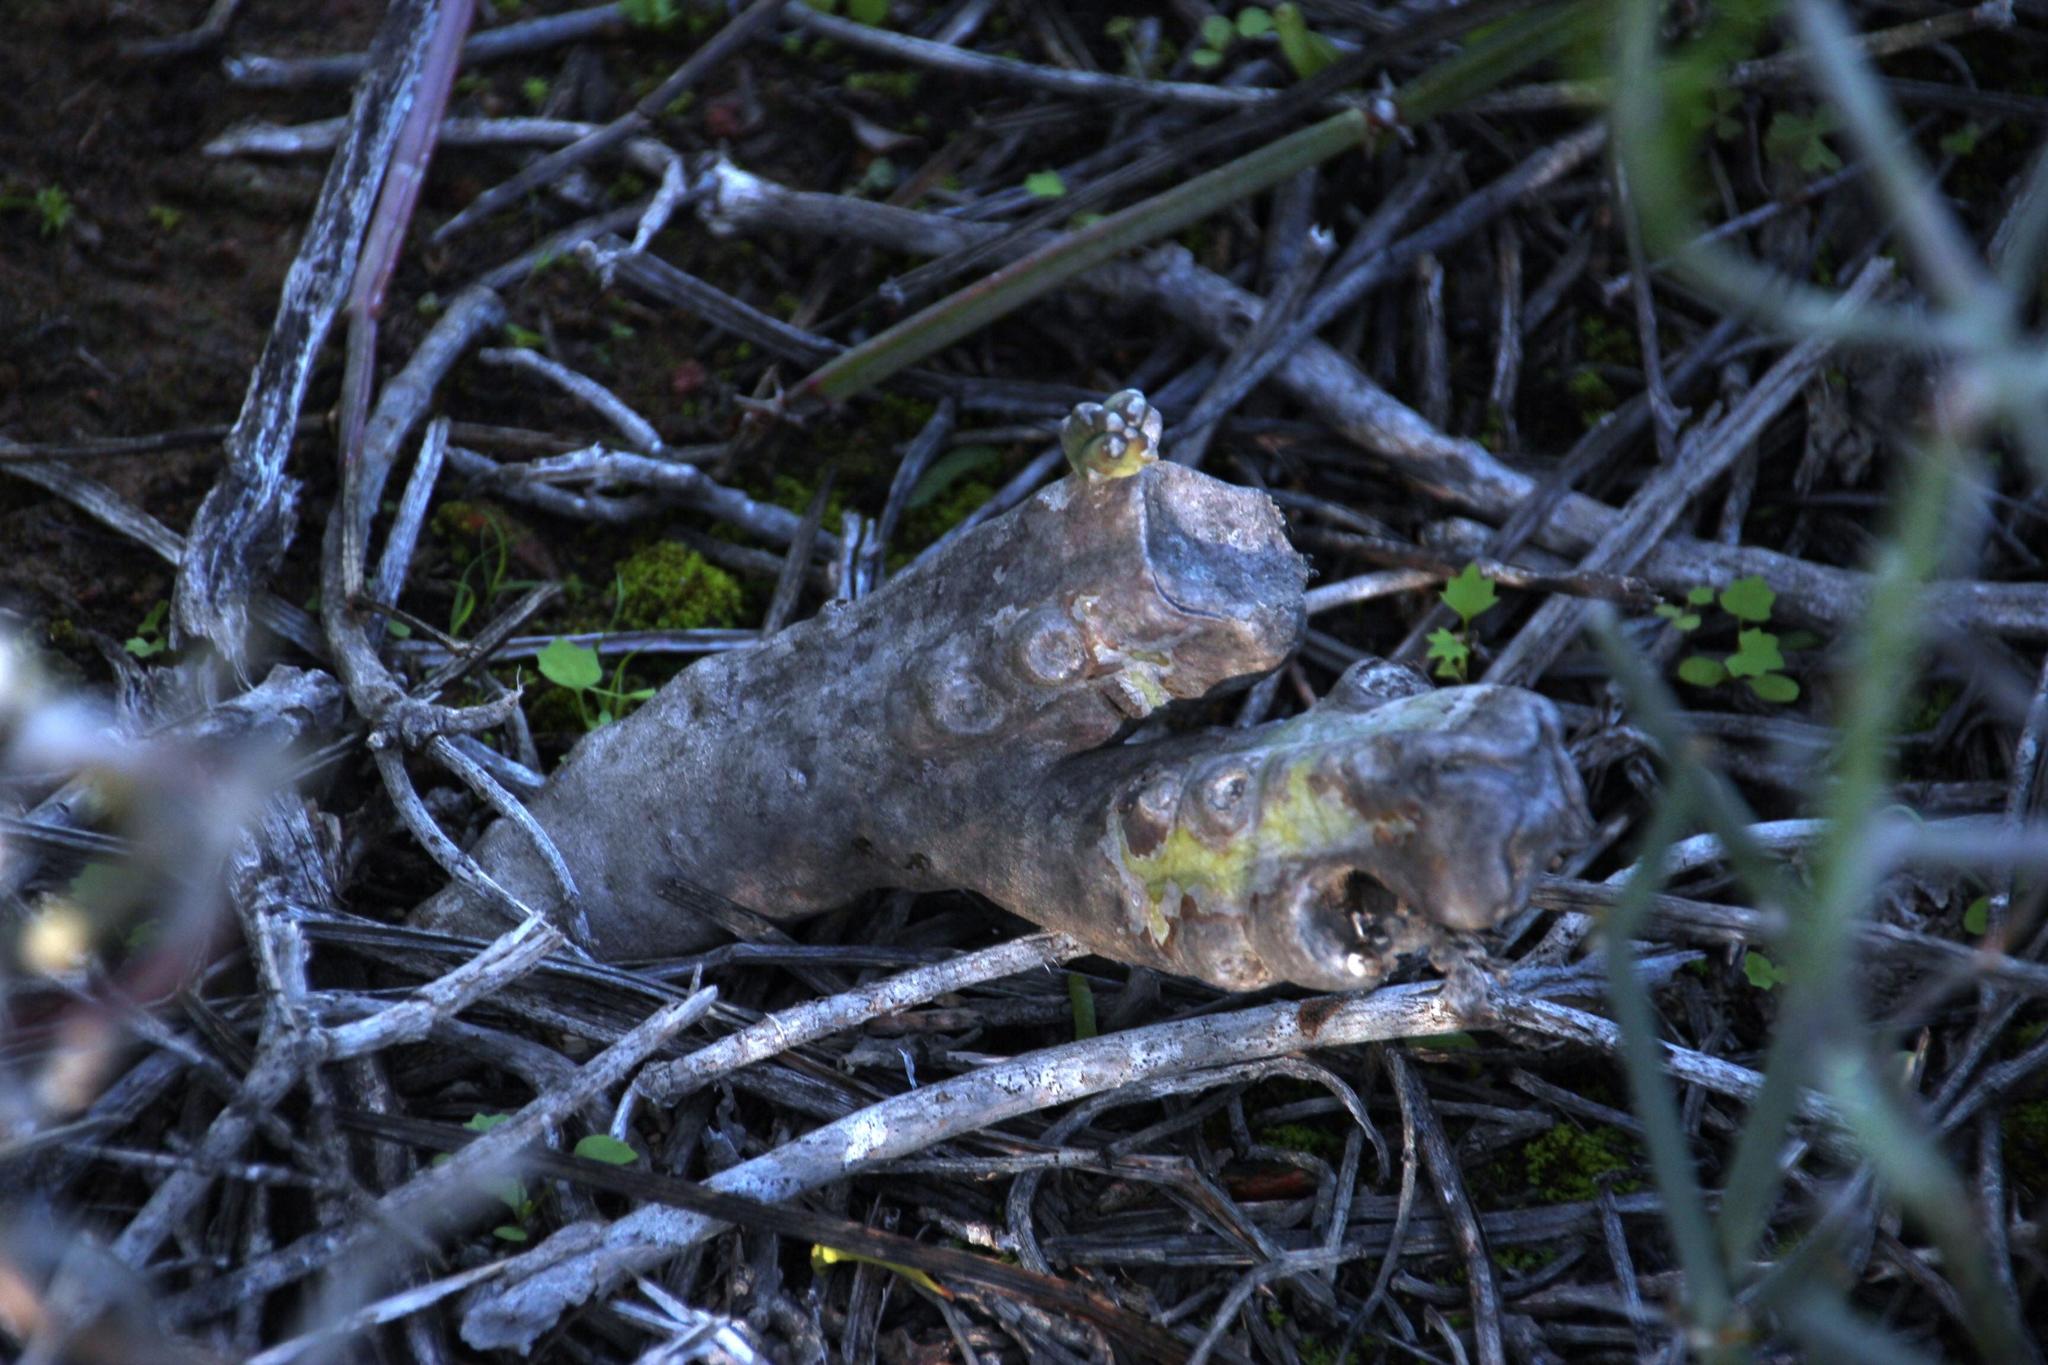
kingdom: Plantae
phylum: Tracheophyta
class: Magnoliopsida
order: Gentianales
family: Apocynaceae
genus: Ceropegia
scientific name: Ceropegia ramosa
